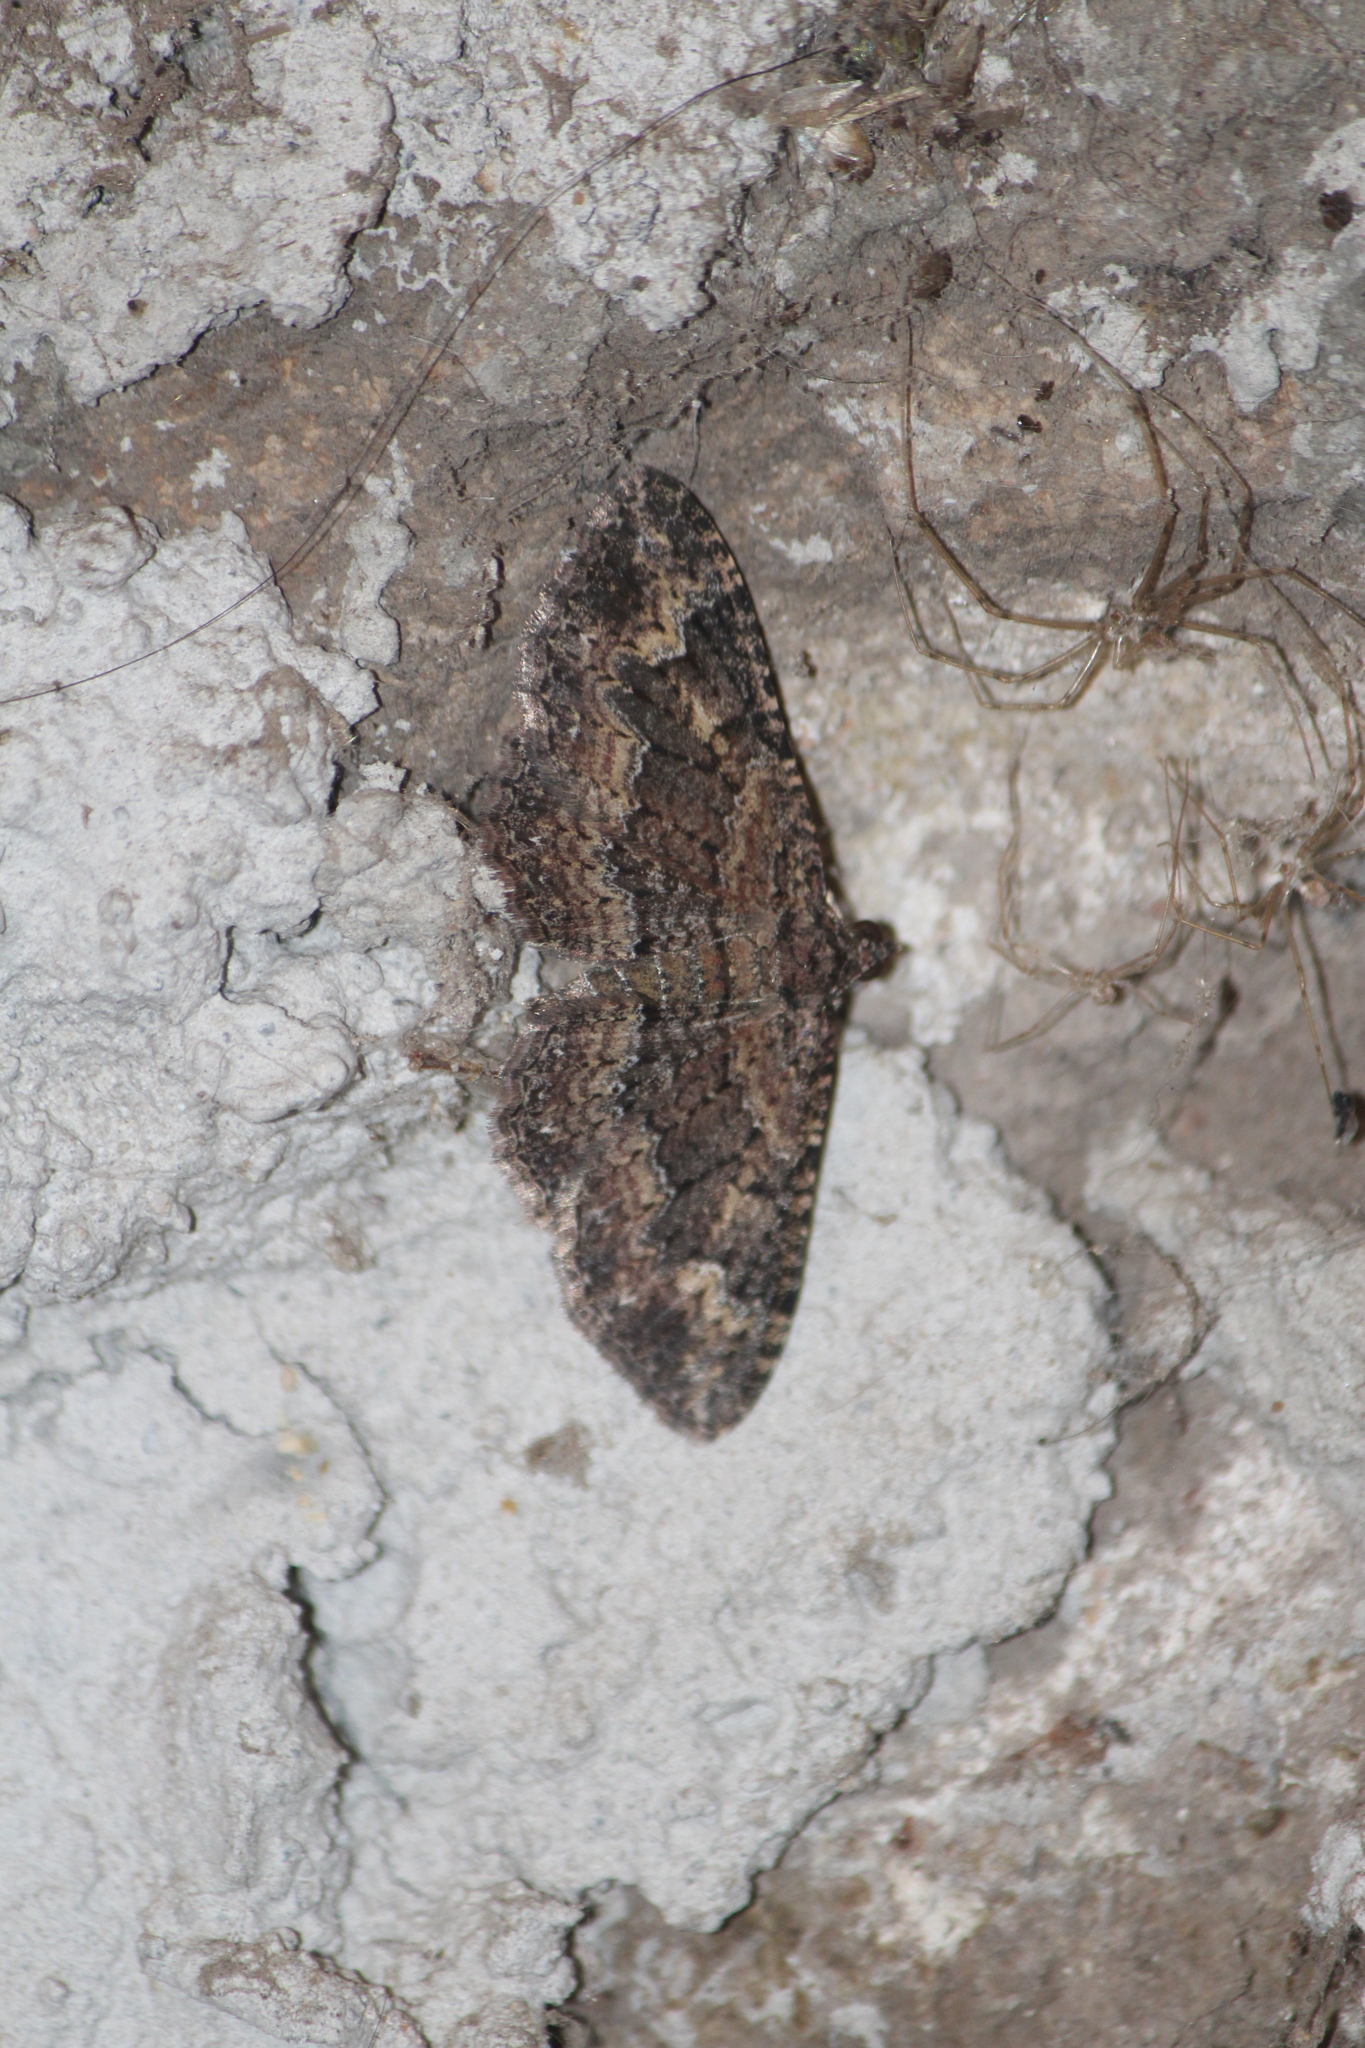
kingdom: Animalia
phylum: Arthropoda
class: Insecta
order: Lepidoptera
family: Geometridae
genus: Disclisioprocta
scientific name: Disclisioprocta stellata
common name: Somber carpet
